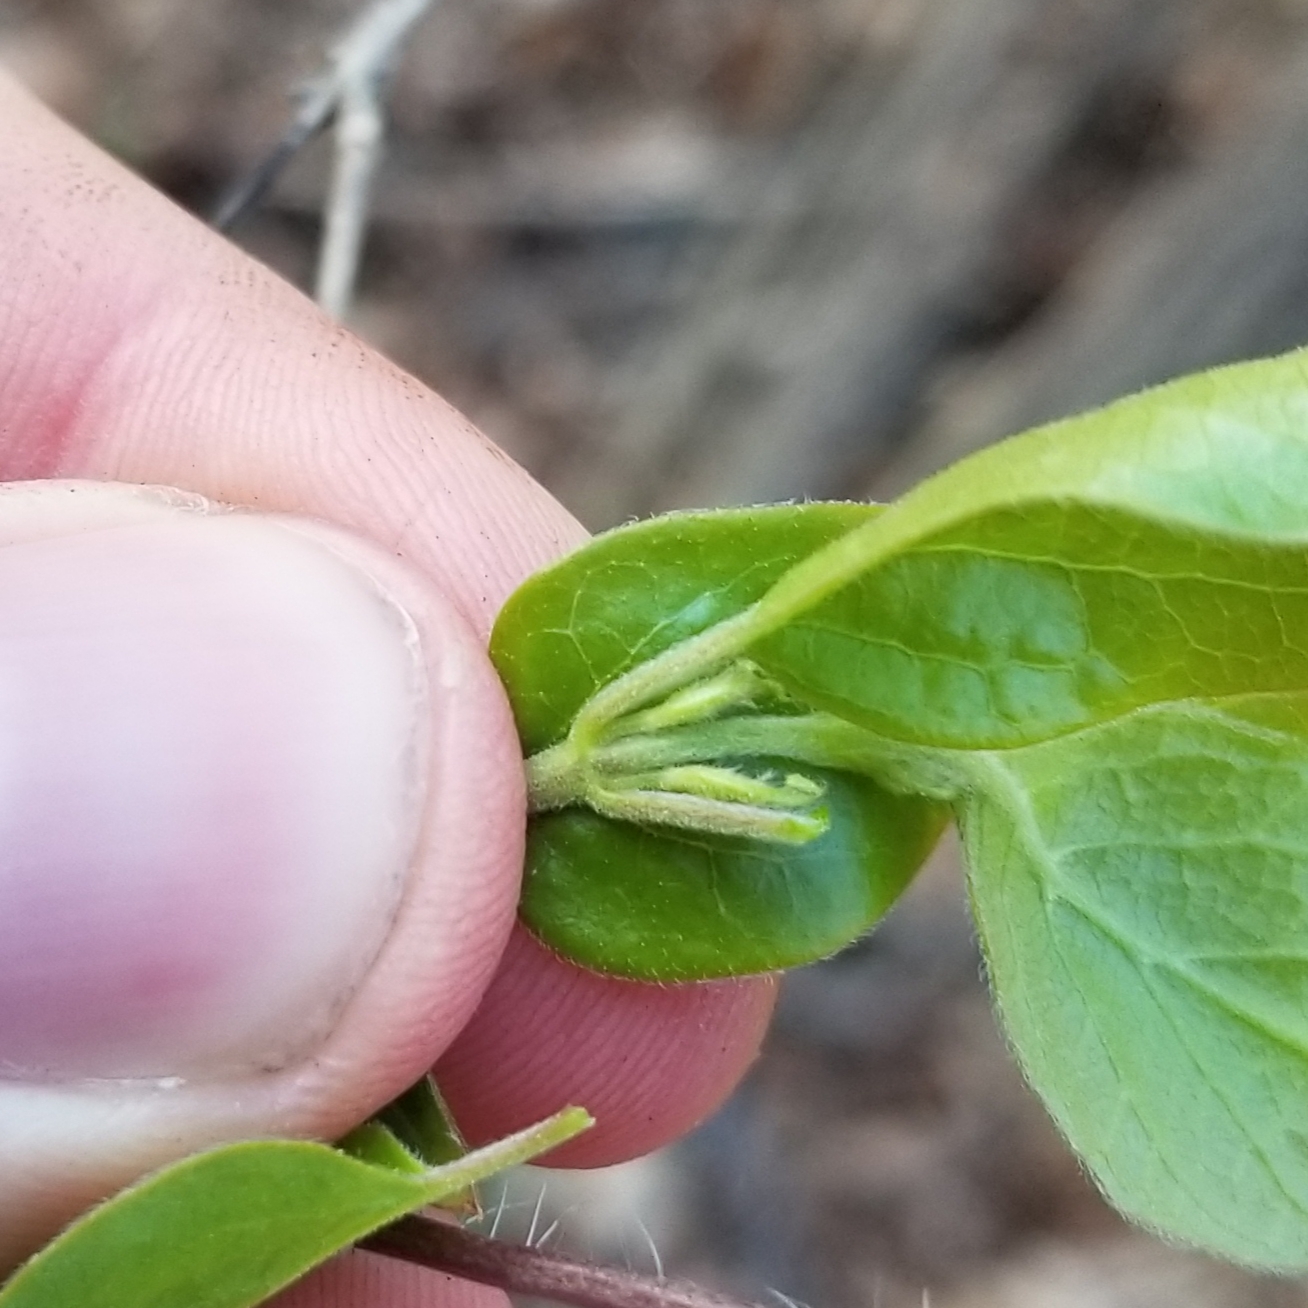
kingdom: Plantae
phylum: Tracheophyta
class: Magnoliopsida
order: Dipsacales
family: Caprifoliaceae
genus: Lonicera
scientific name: Lonicera maackii
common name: Amur honeysuckle
